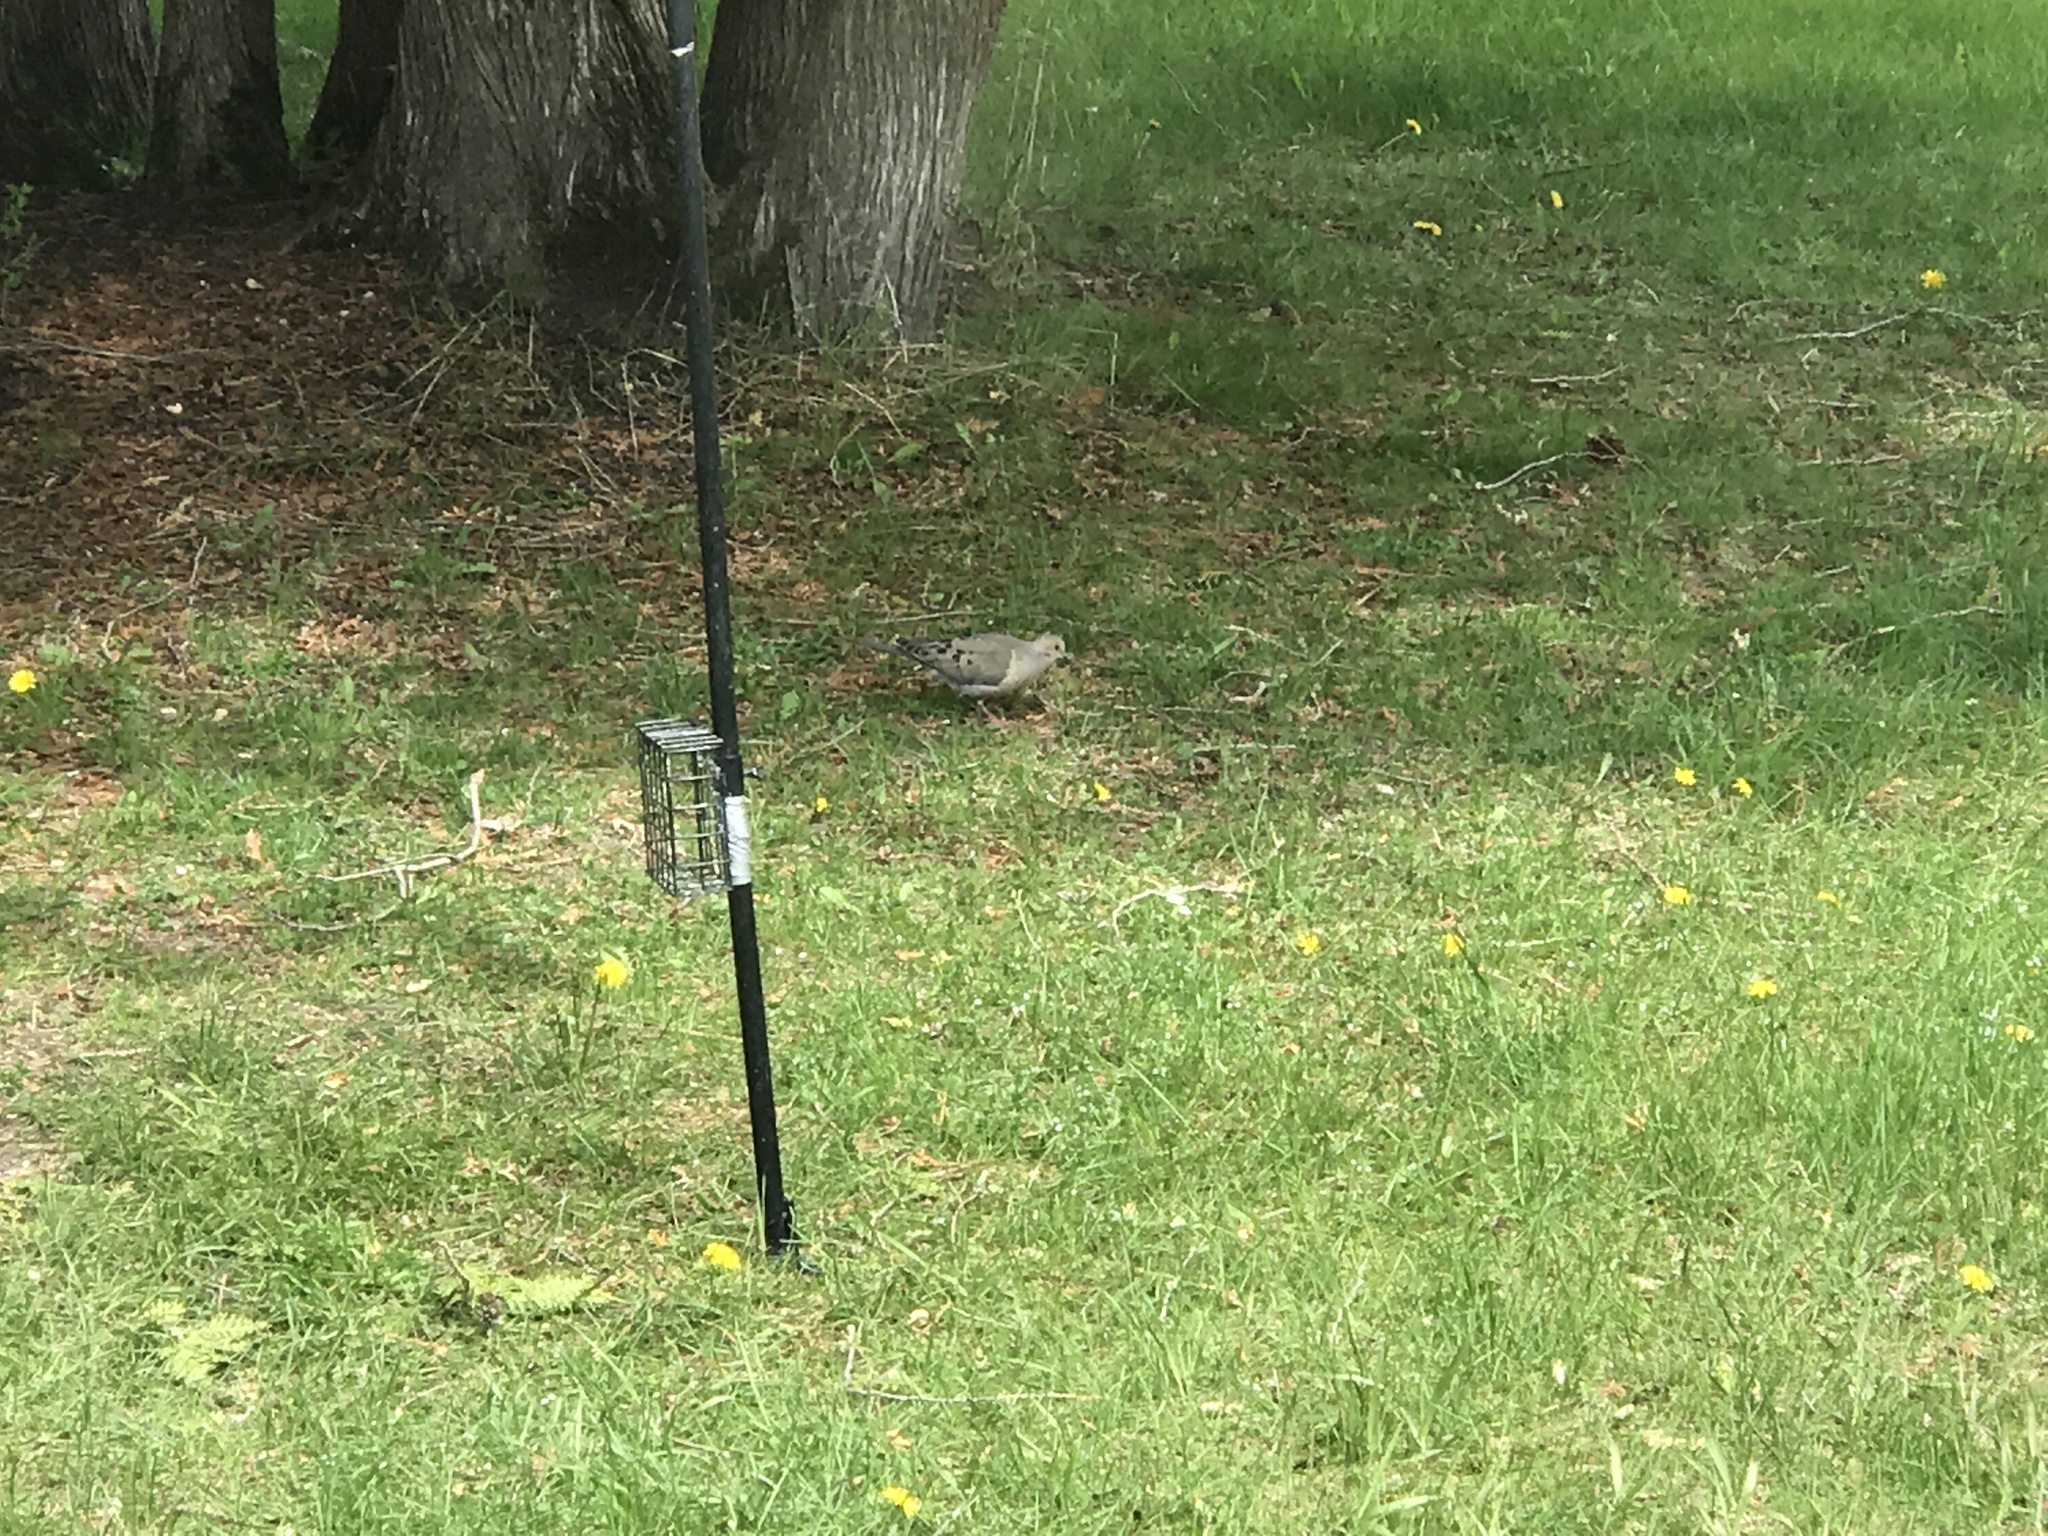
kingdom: Animalia
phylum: Chordata
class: Aves
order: Columbiformes
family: Columbidae
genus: Zenaida
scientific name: Zenaida macroura
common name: Mourning dove
